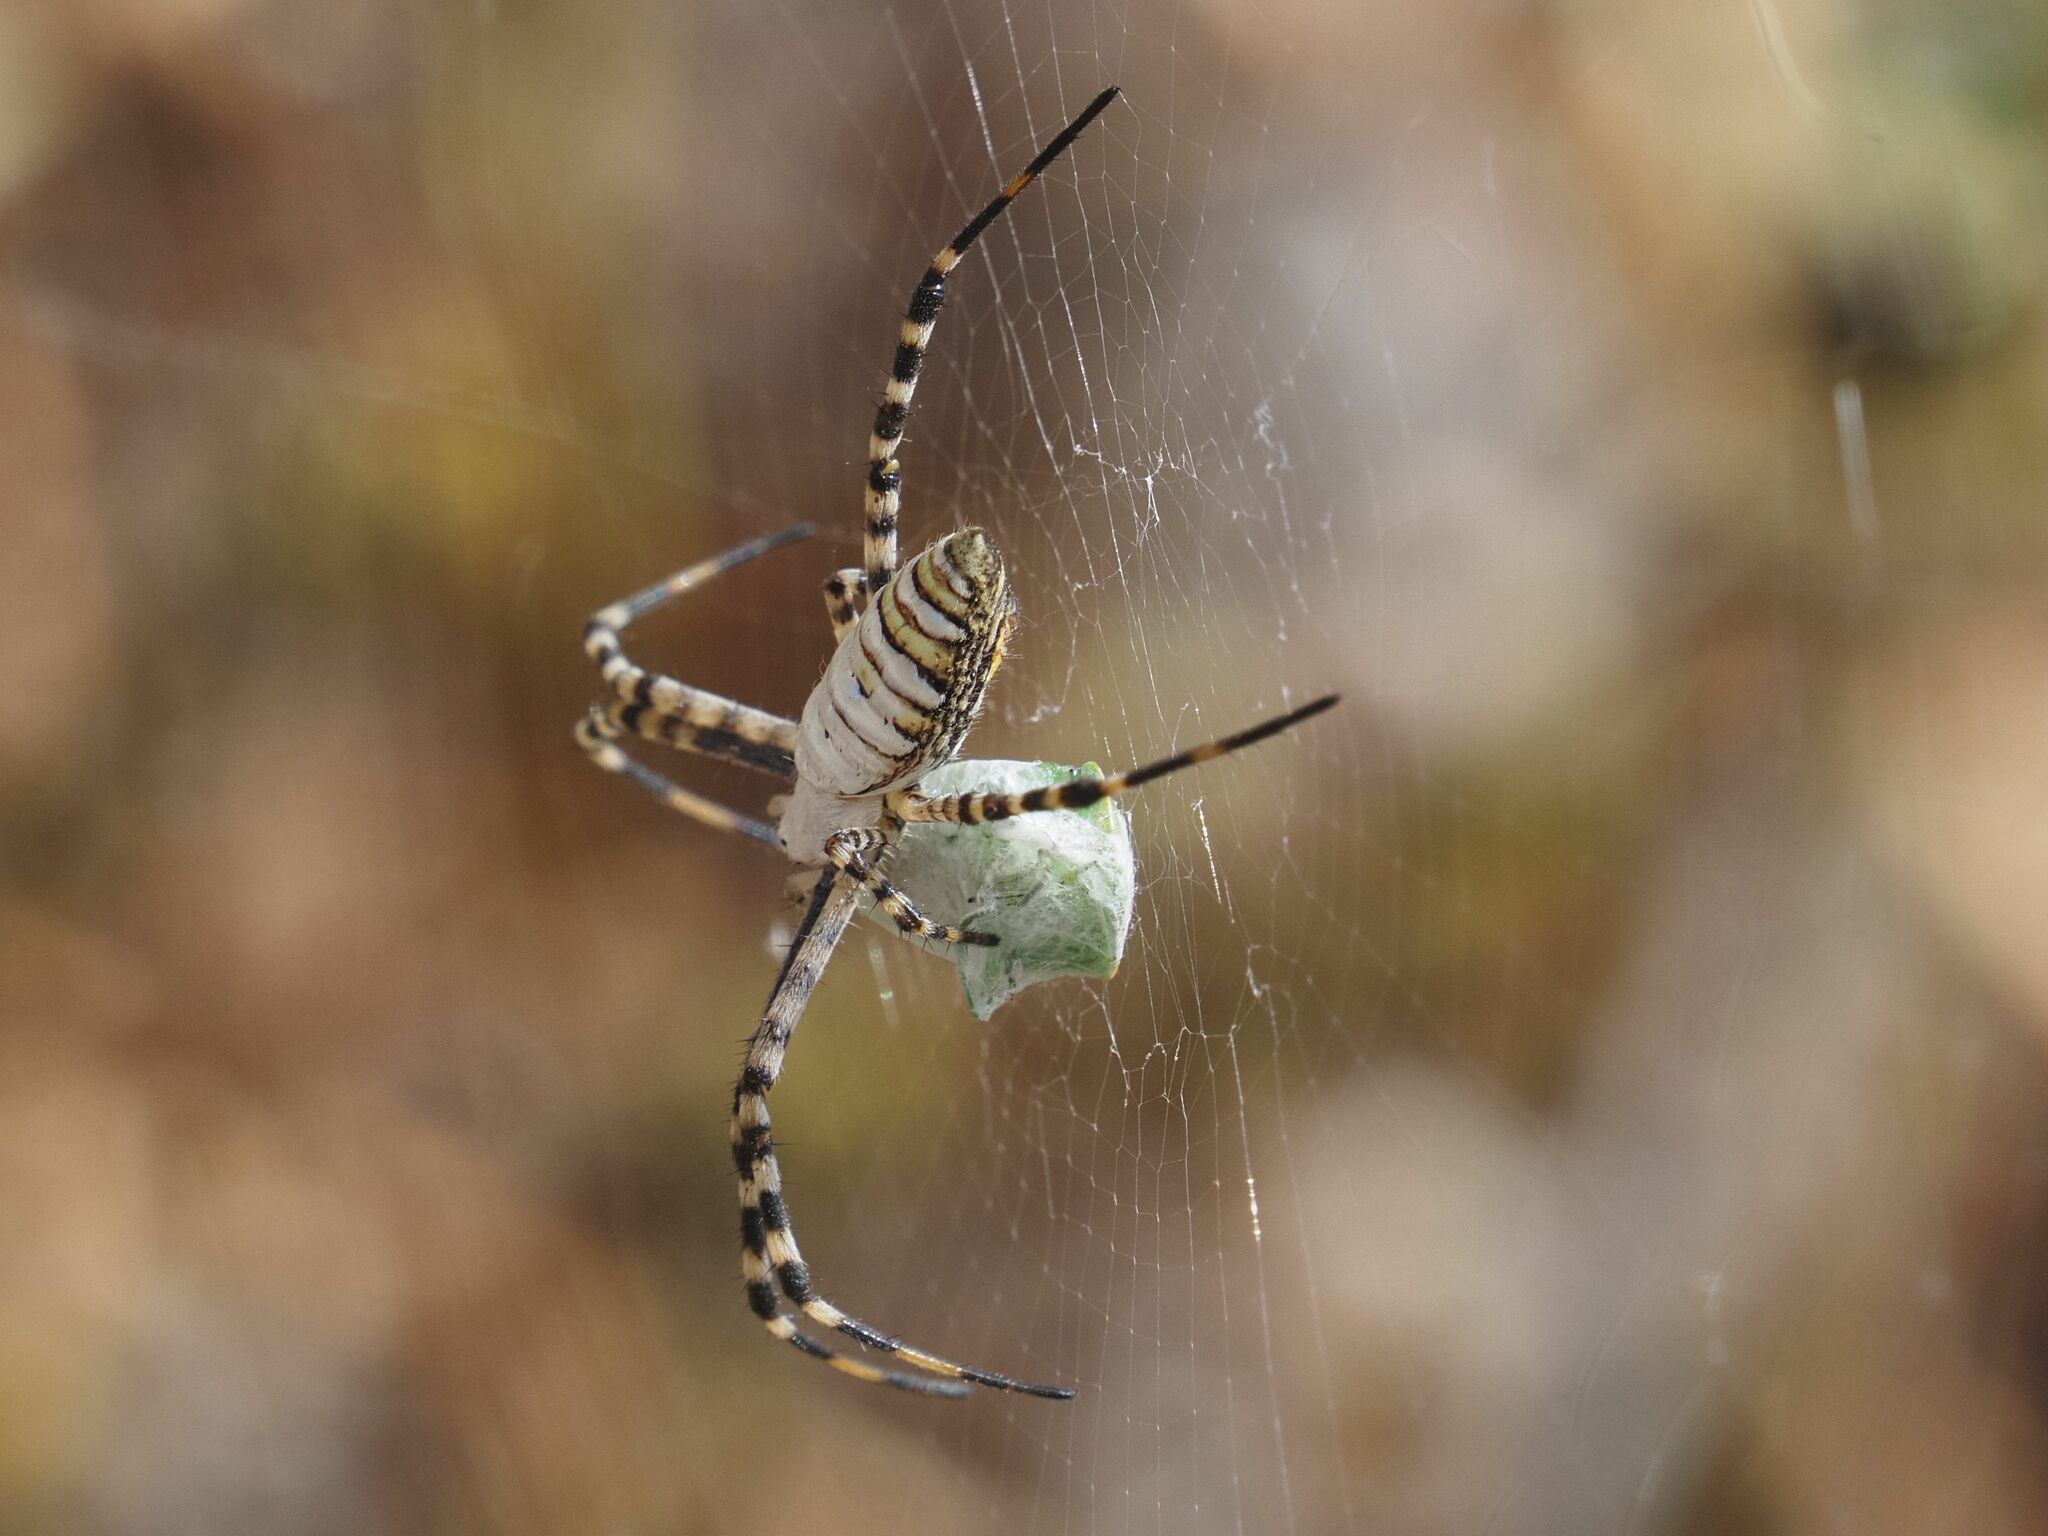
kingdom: Animalia
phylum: Arthropoda
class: Arachnida
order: Araneae
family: Araneidae
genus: Argiope
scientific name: Argiope trifasciata
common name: Banded garden spider
